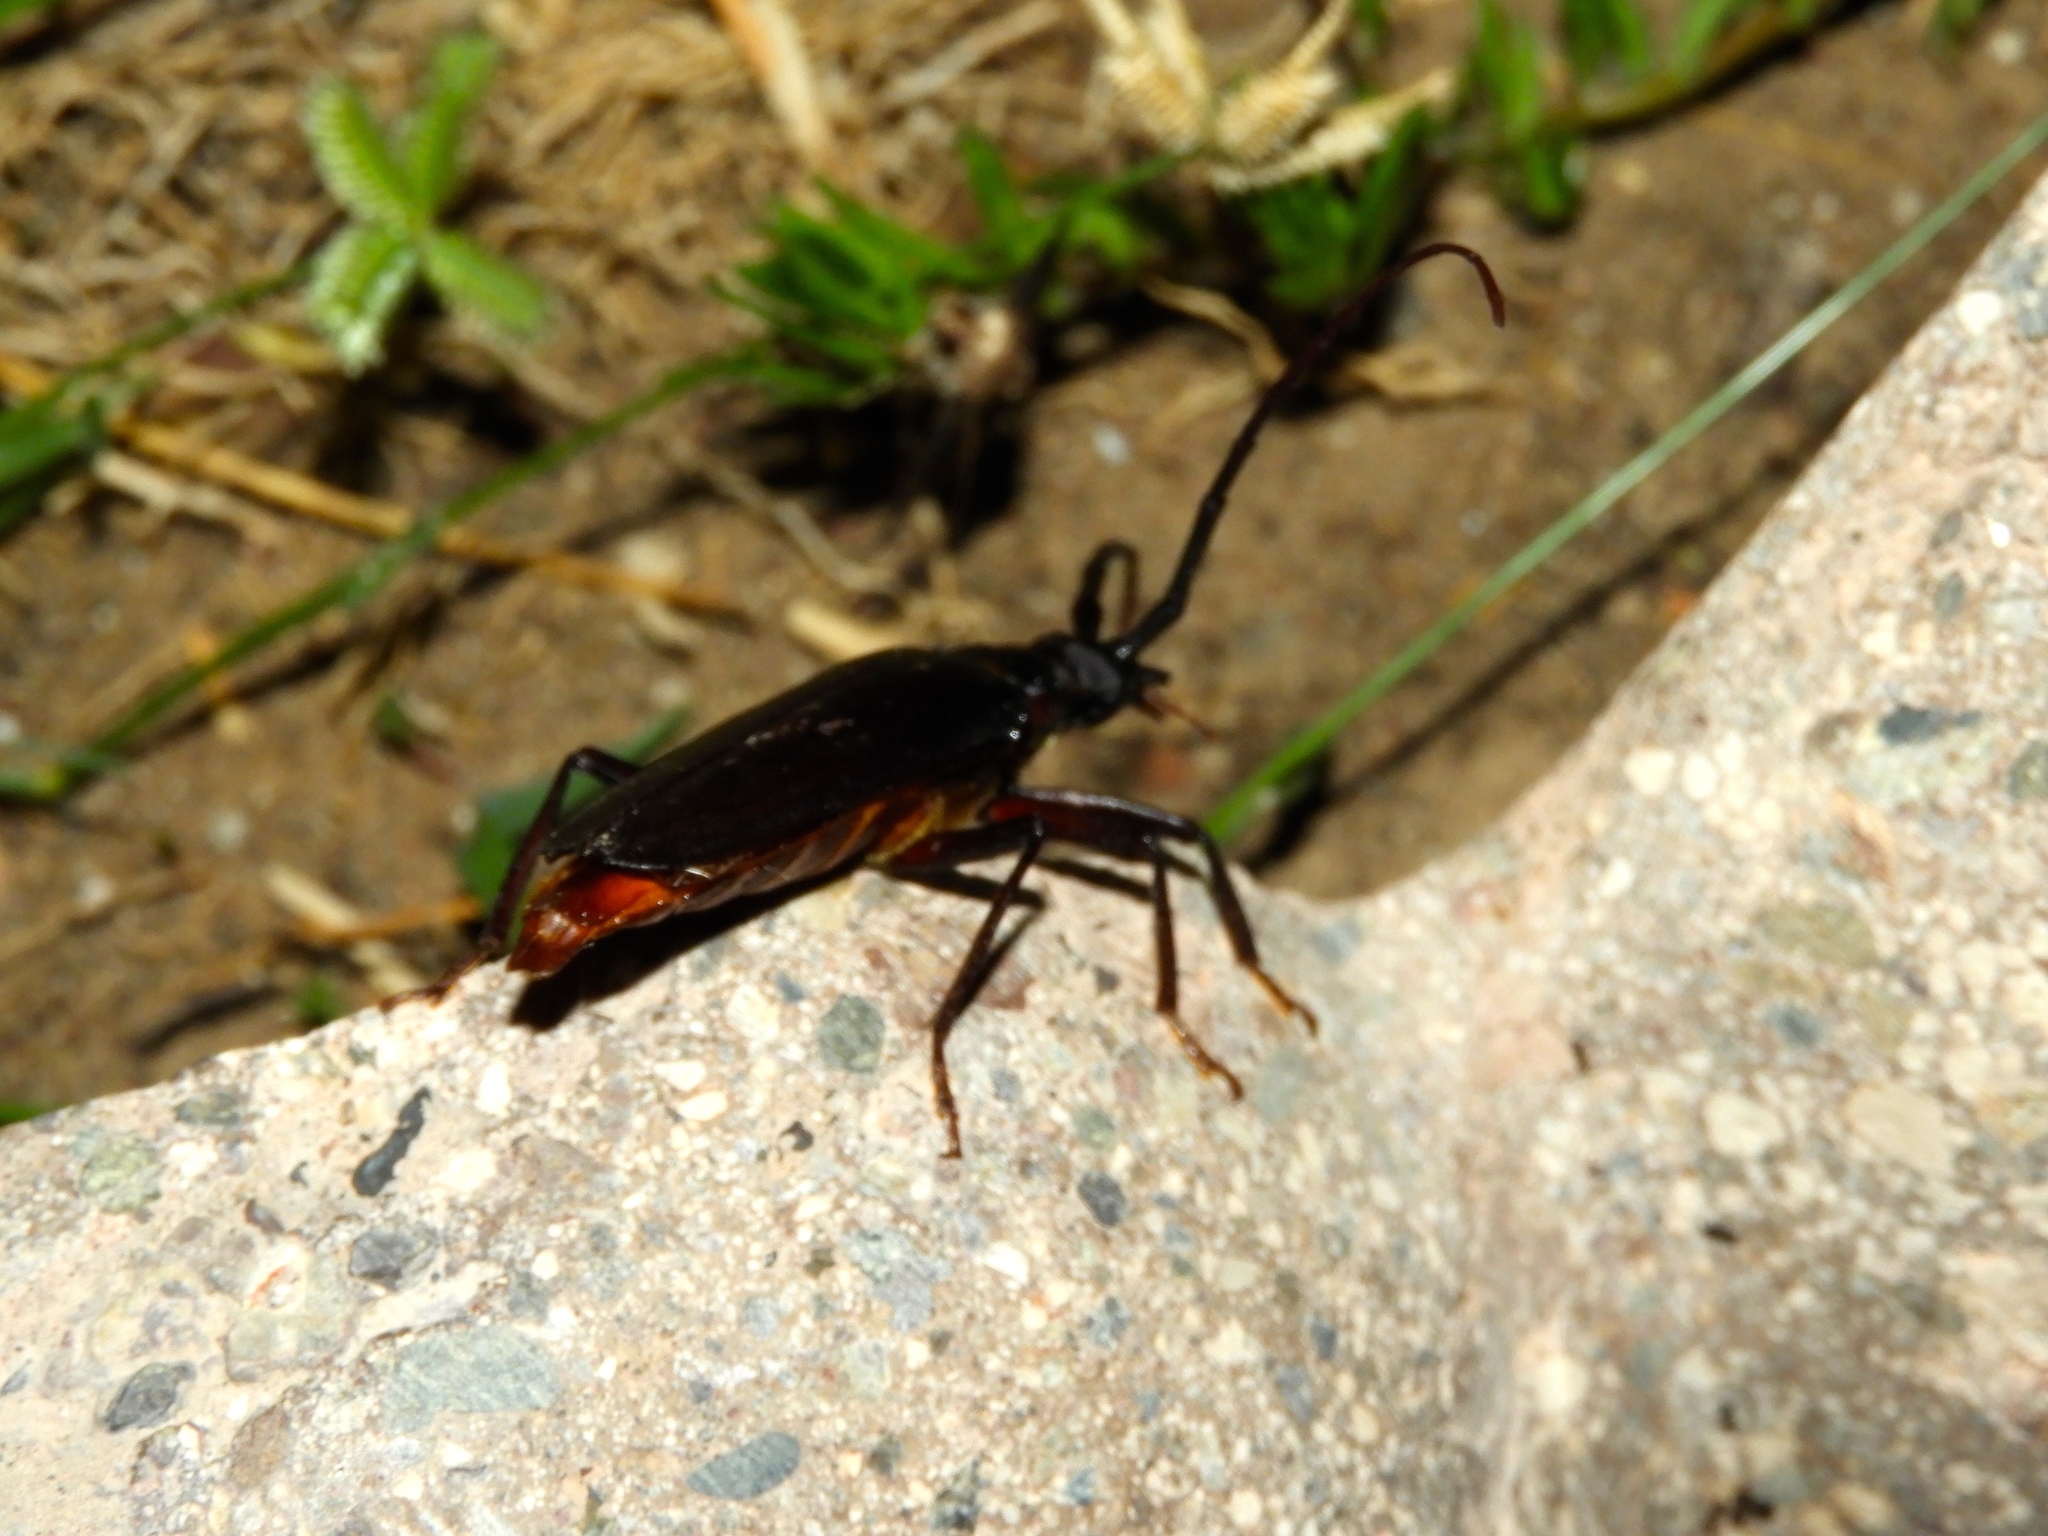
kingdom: Animalia
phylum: Arthropoda
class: Insecta
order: Coleoptera
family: Cerambycidae
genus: Derobrachus
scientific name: Derobrachus
